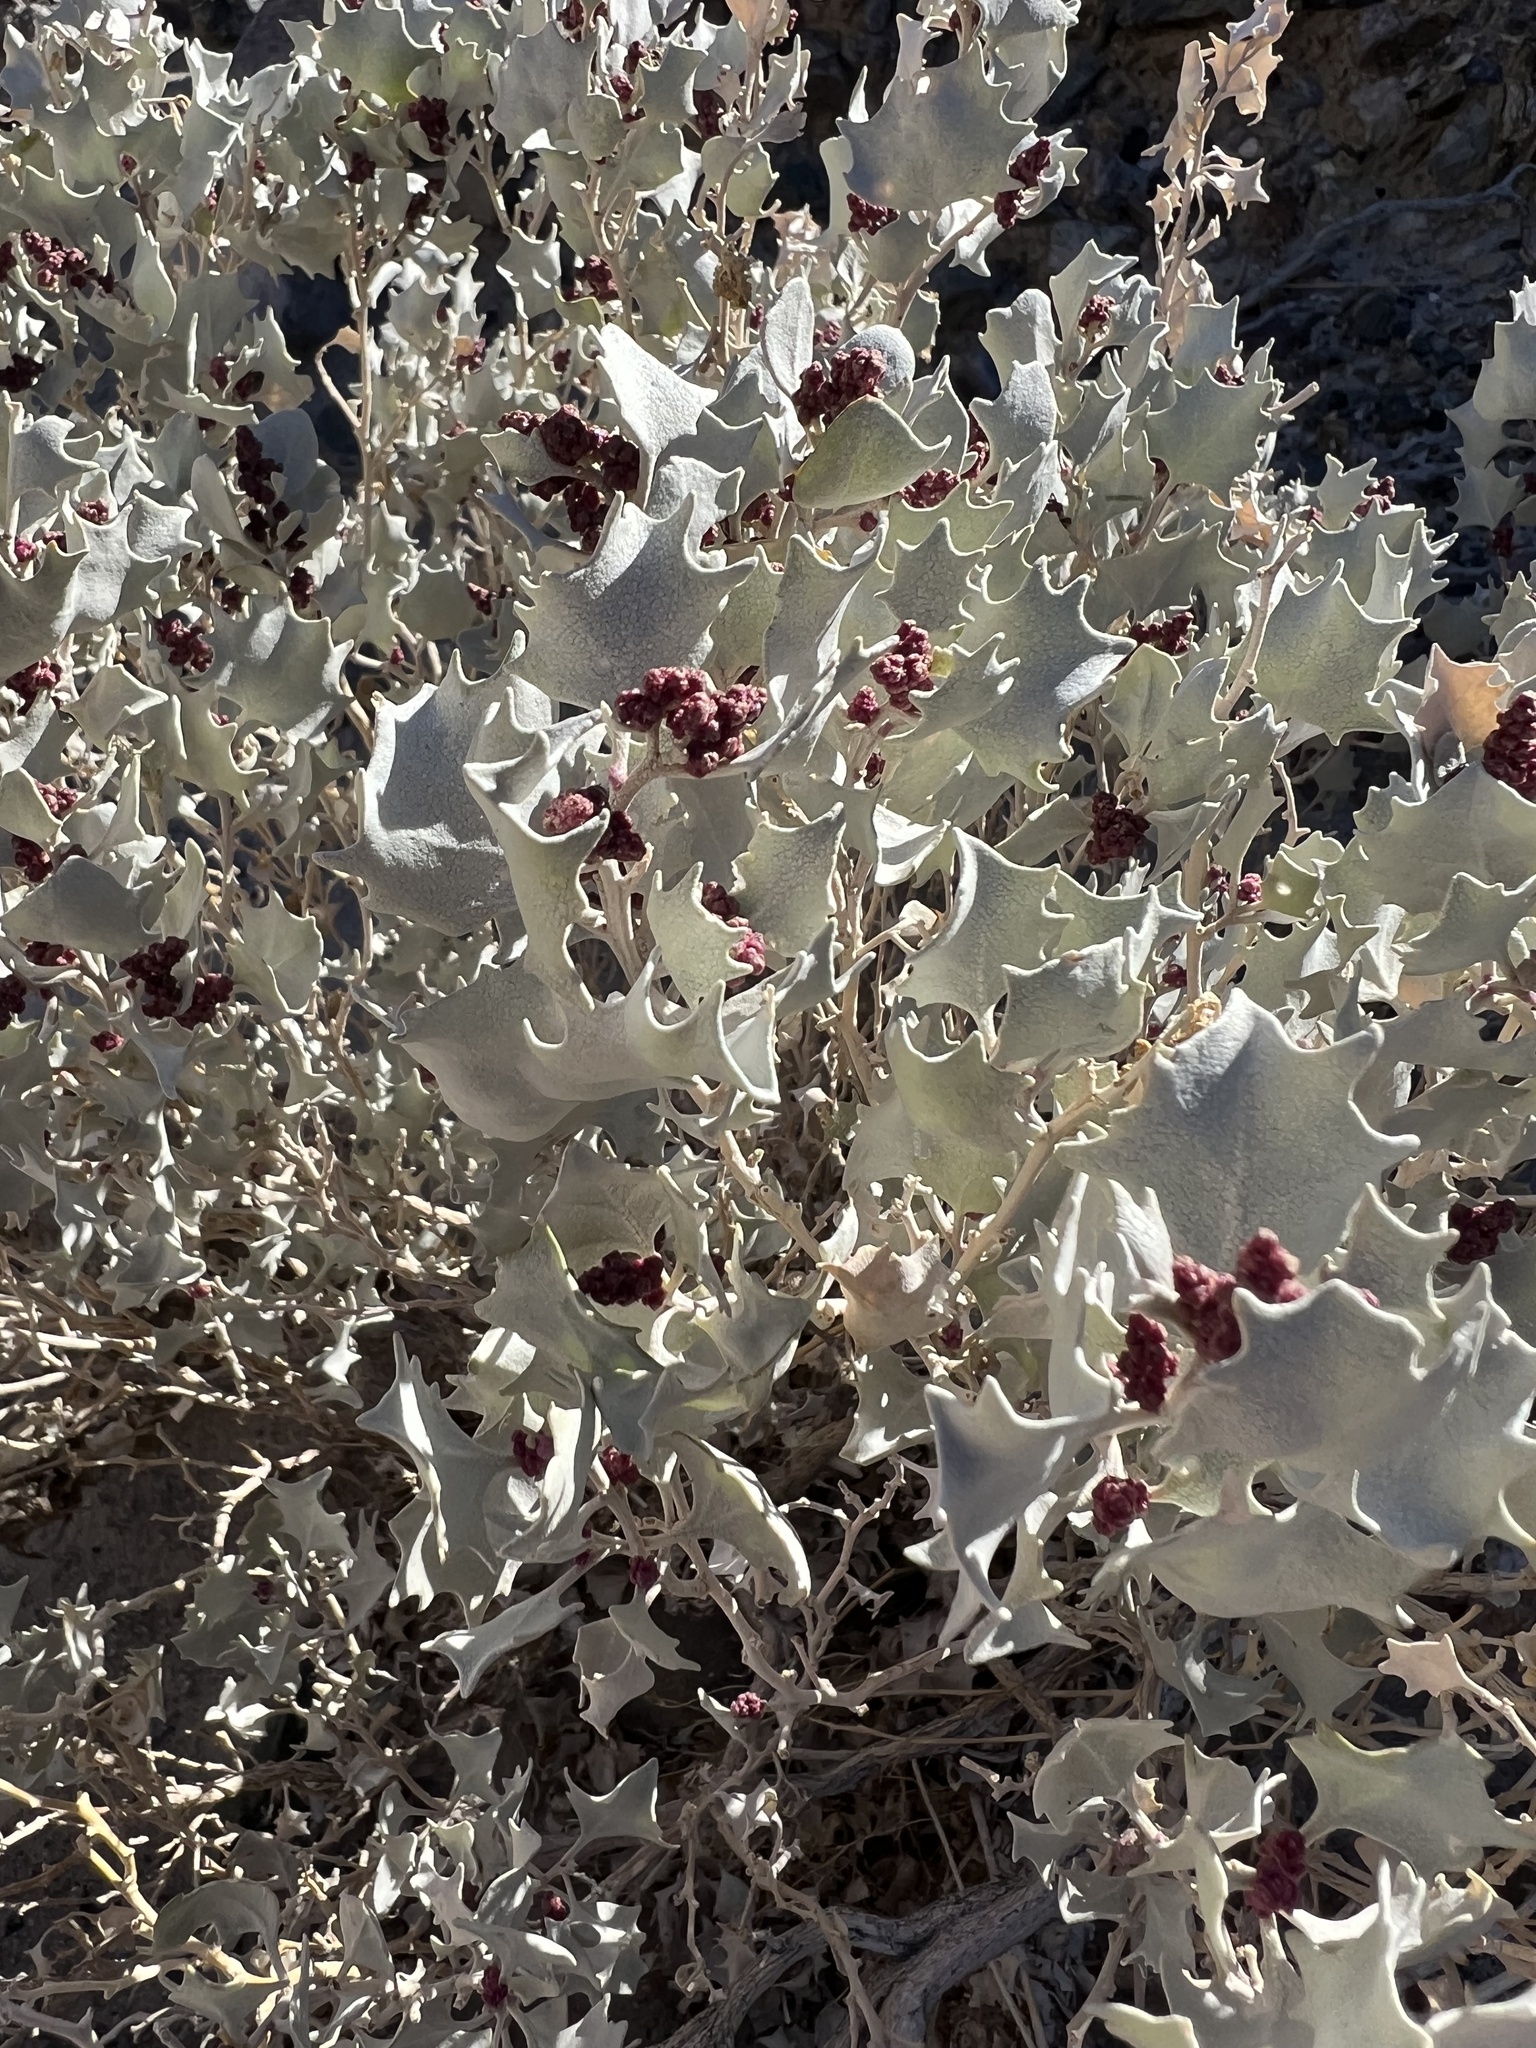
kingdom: Plantae
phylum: Tracheophyta
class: Magnoliopsida
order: Caryophyllales
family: Amaranthaceae
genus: Atriplex
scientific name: Atriplex hymenelytra
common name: Desert-holly
